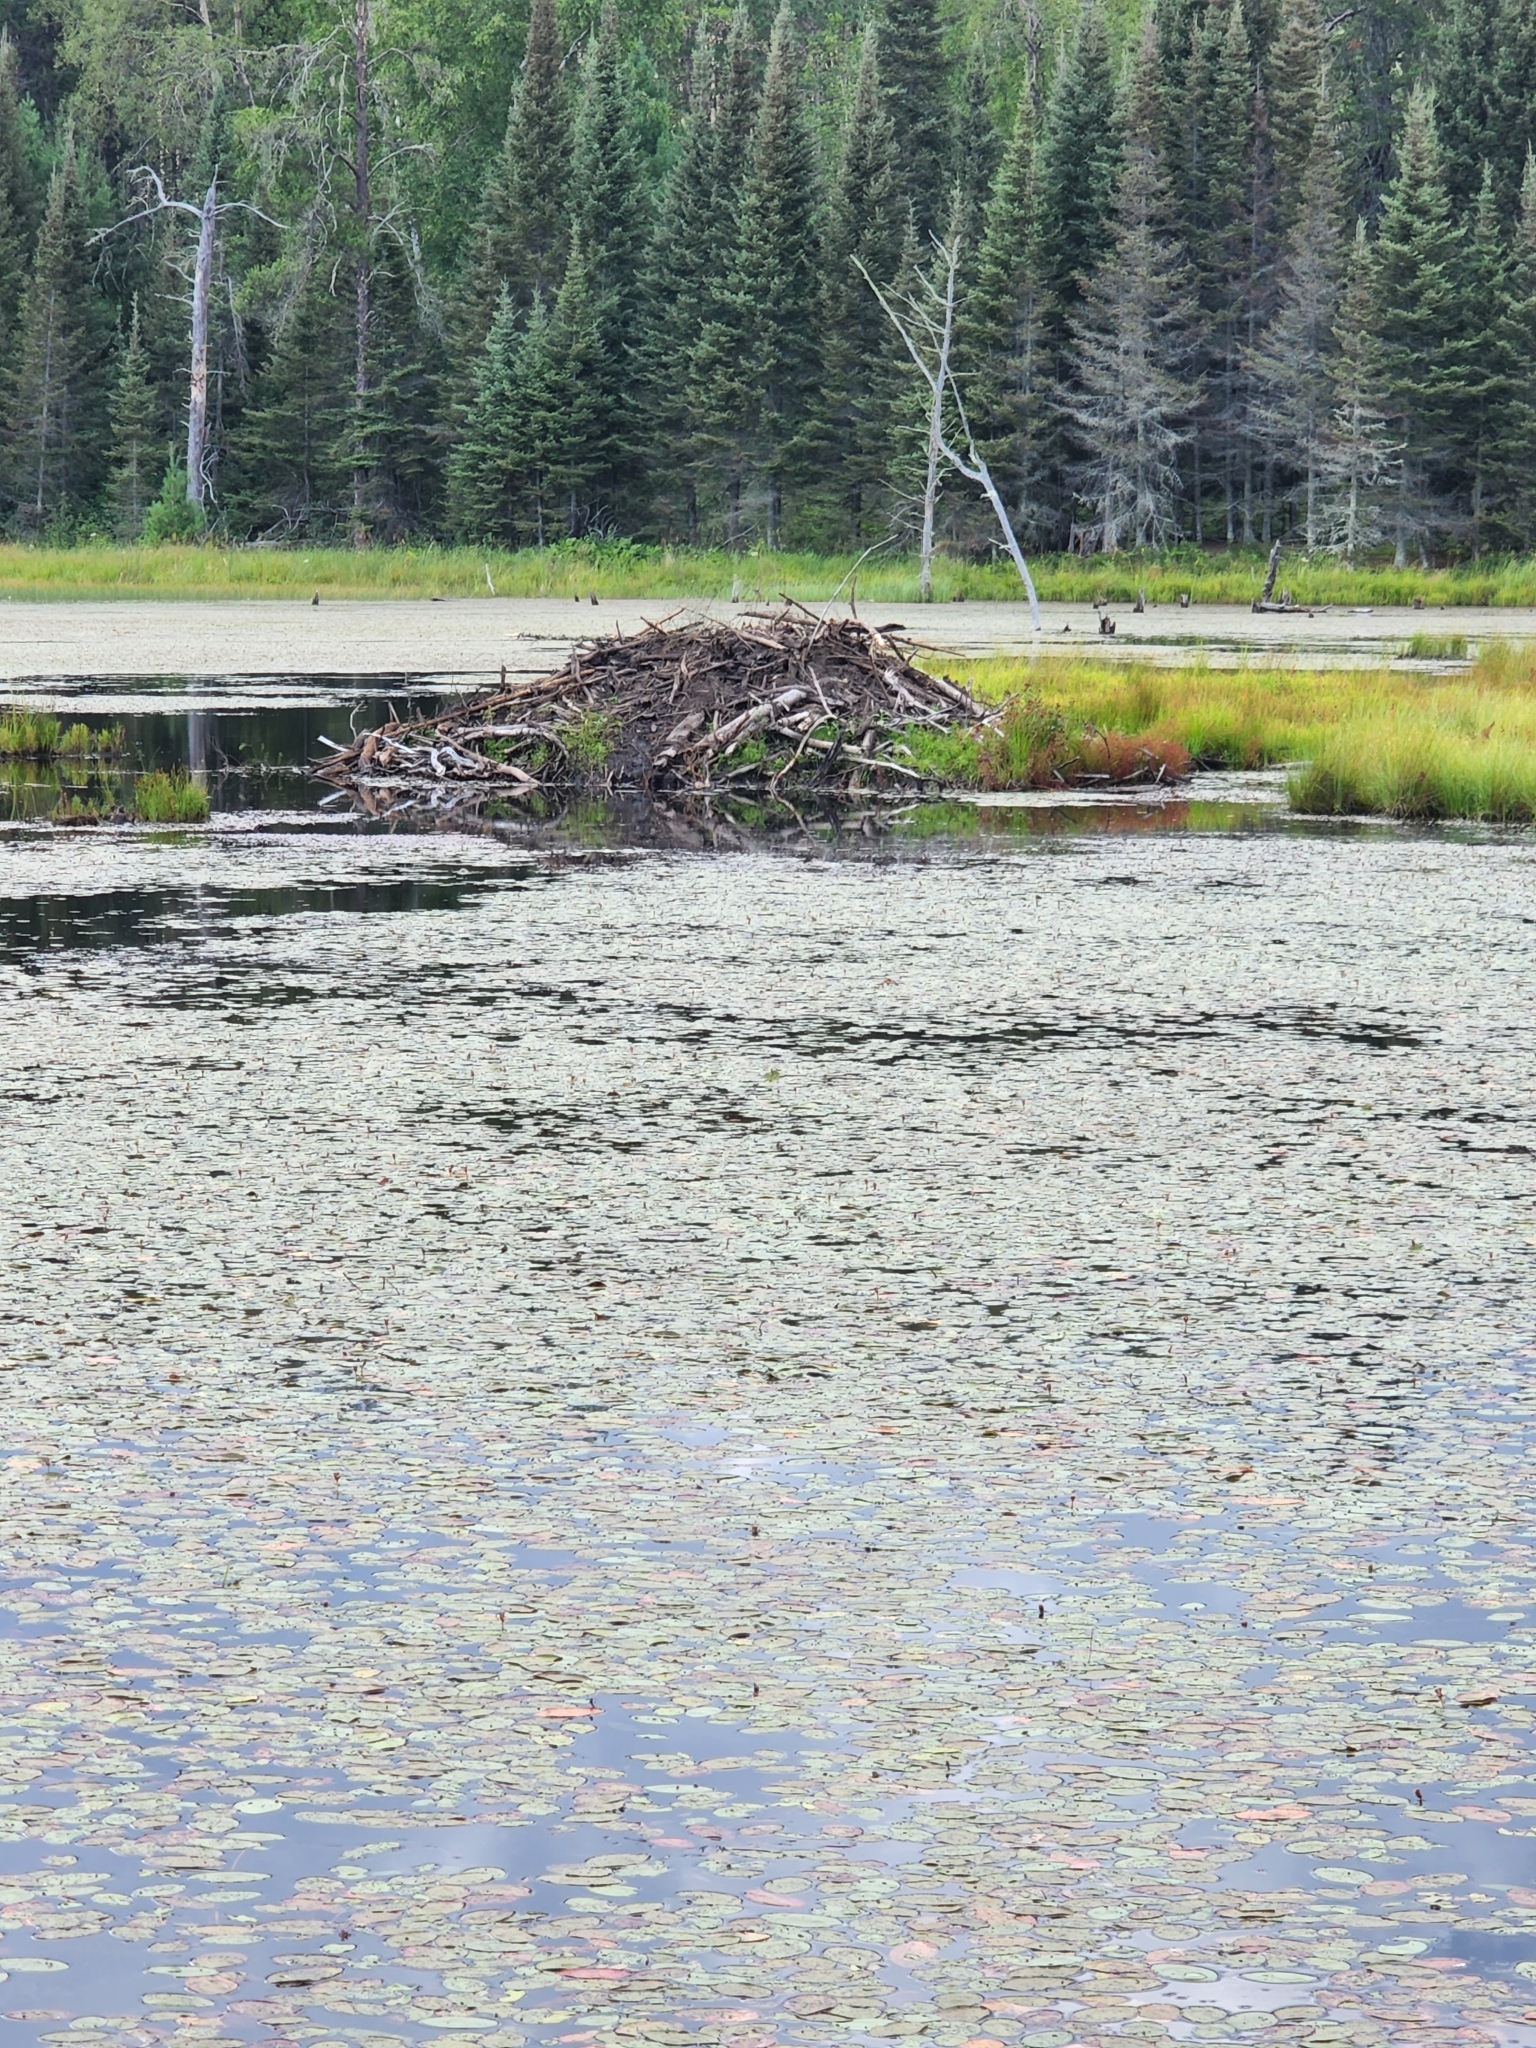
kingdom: Animalia
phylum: Chordata
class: Mammalia
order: Rodentia
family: Castoridae
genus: Castor
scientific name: Castor canadensis
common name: American beaver
